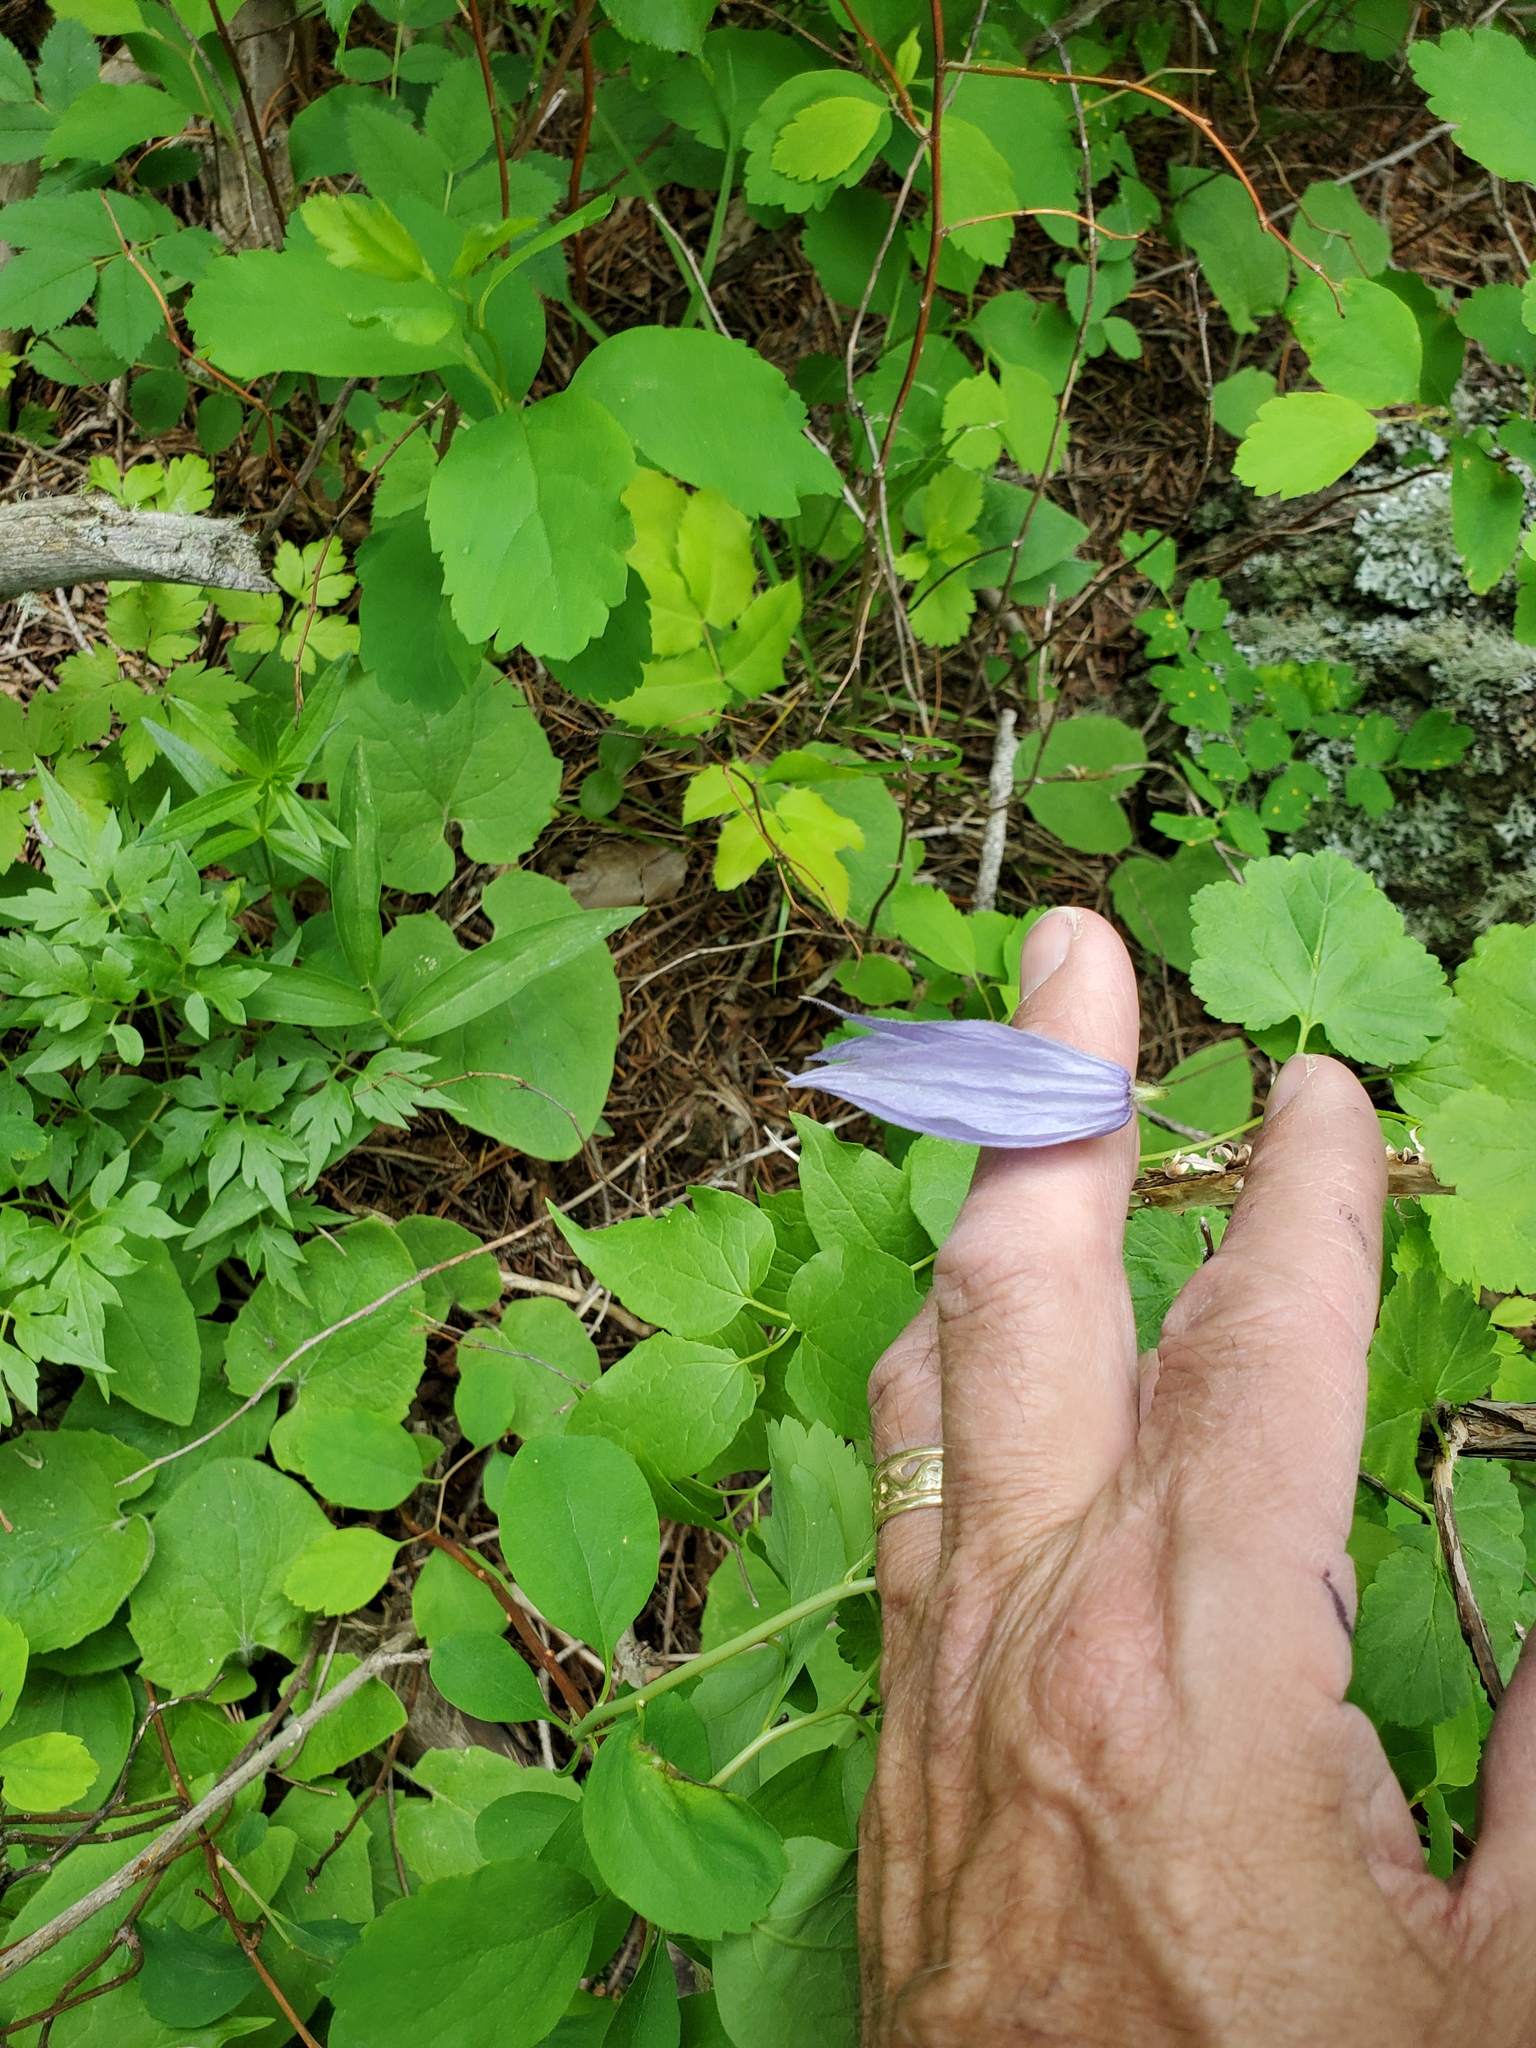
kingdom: Plantae
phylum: Tracheophyta
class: Magnoliopsida
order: Ranunculales
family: Ranunculaceae
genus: Clematis
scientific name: Clematis occidentalis
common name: Purple clematis
